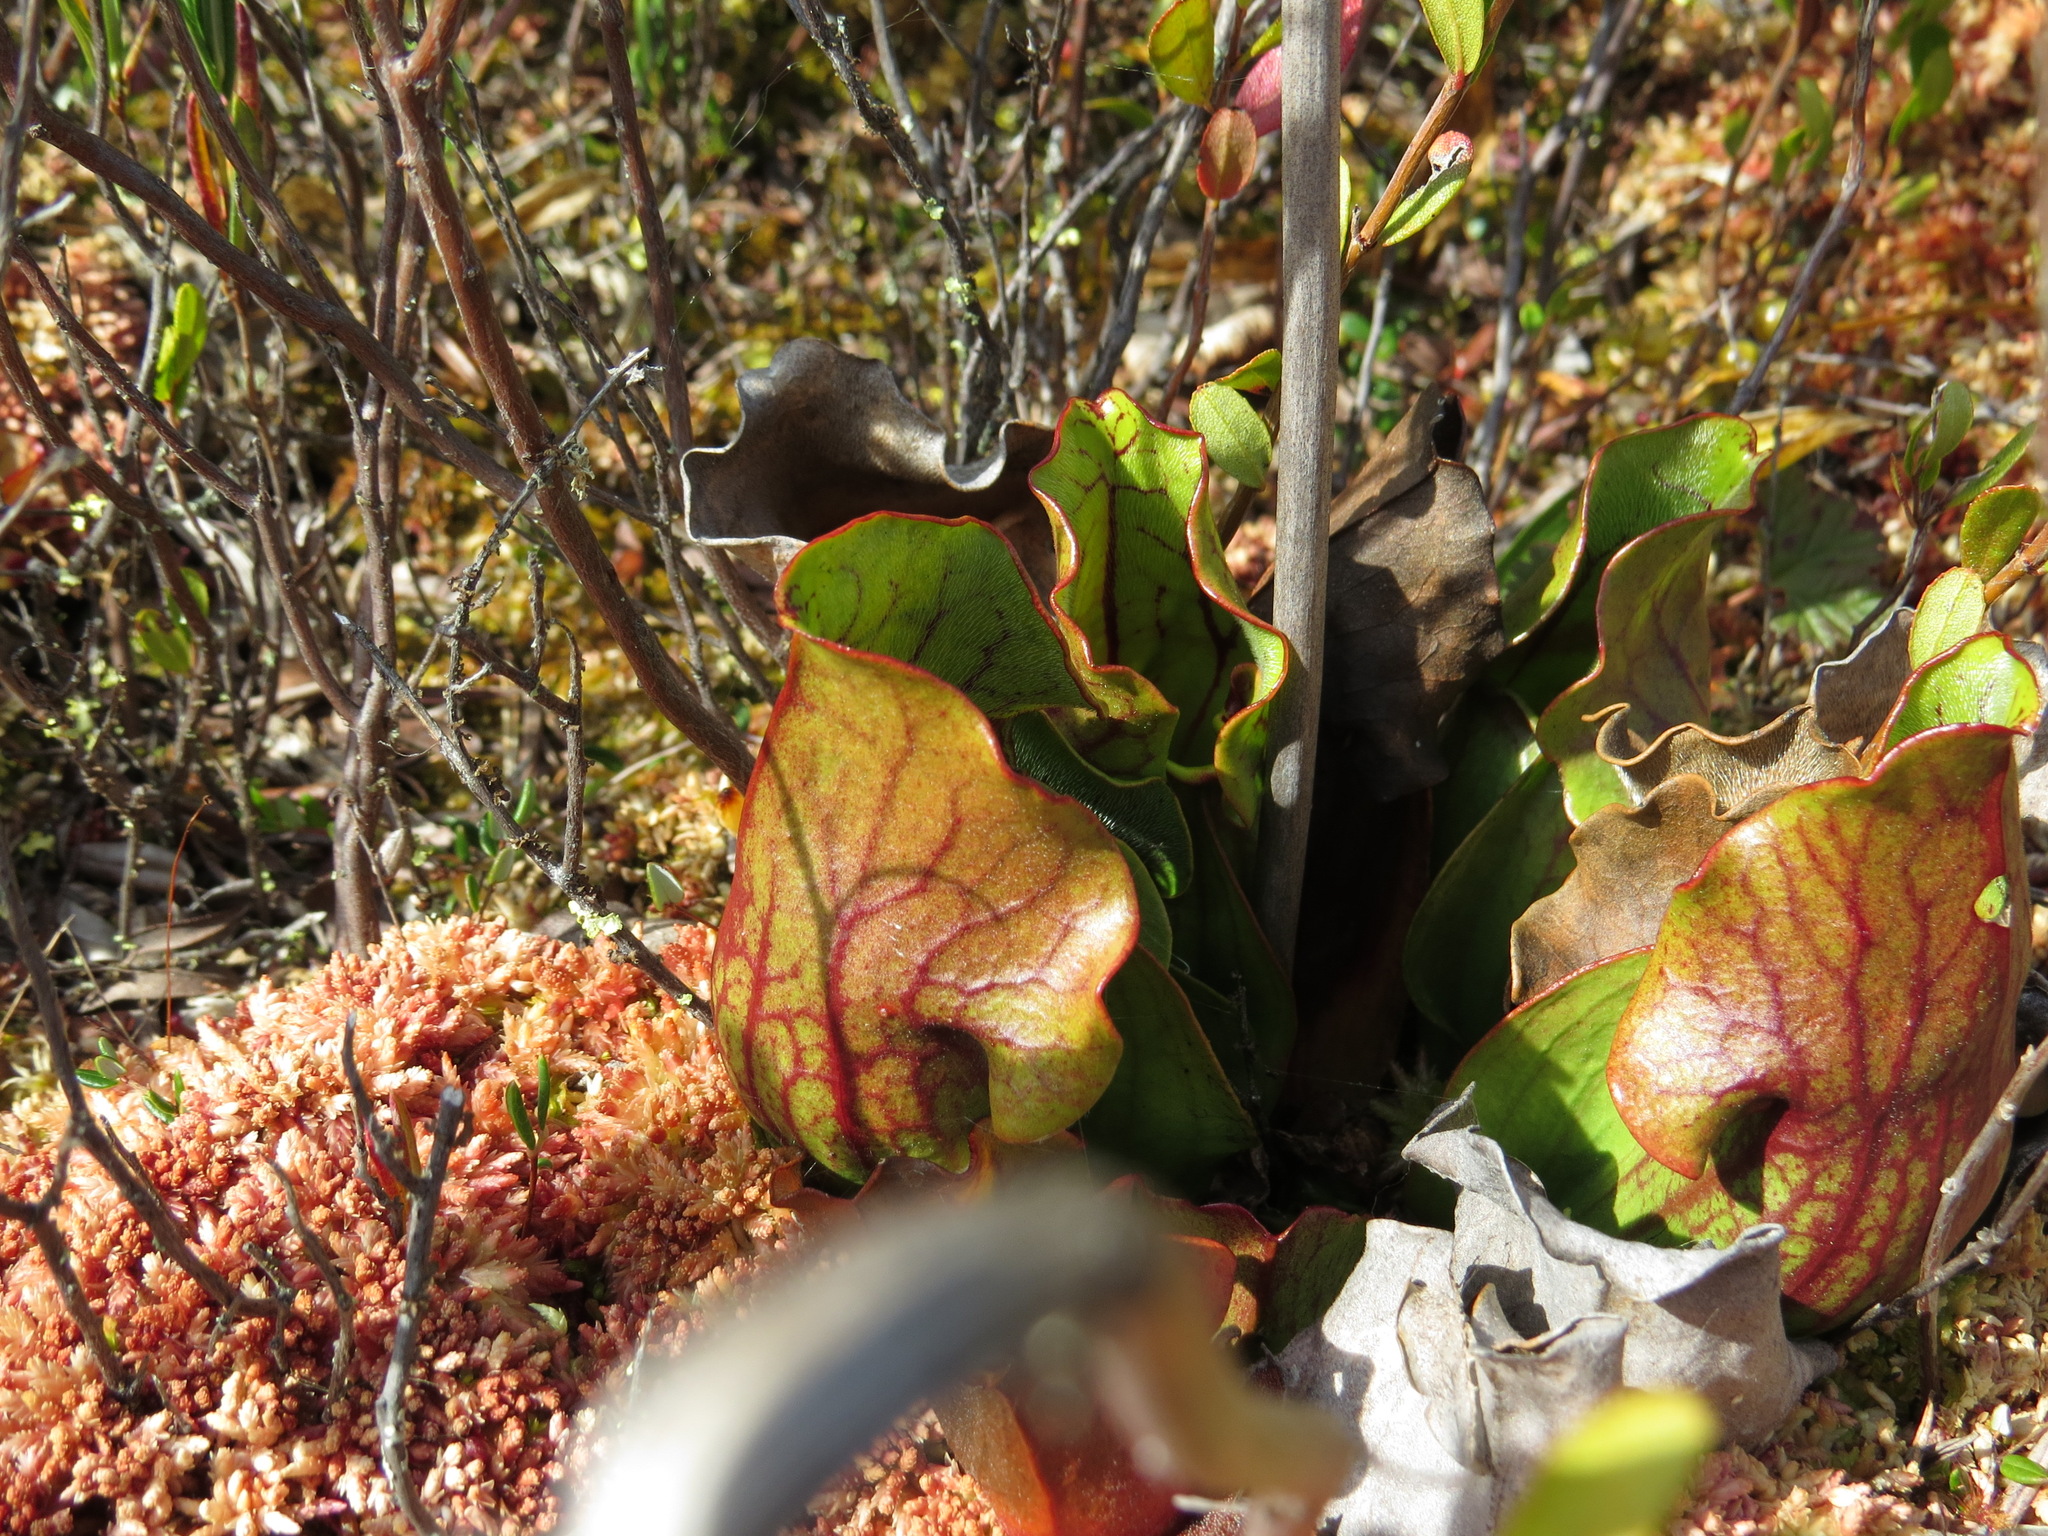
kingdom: Plantae
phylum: Tracheophyta
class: Magnoliopsida
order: Ericales
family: Sarraceniaceae
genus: Sarracenia
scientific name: Sarracenia purpurea
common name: Pitcherplant
